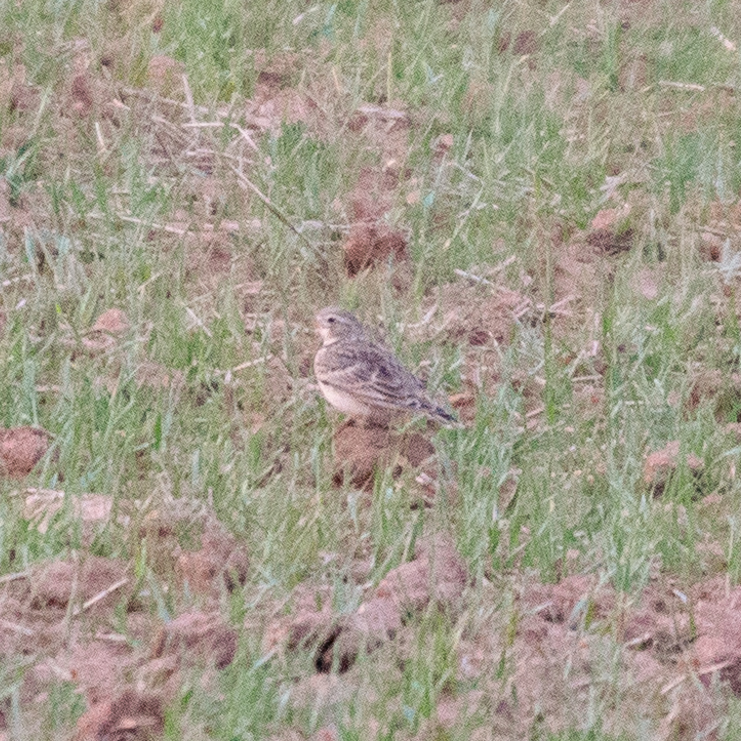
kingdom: Animalia
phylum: Chordata
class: Aves
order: Passeriformes
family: Alaudidae
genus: Melanocorypha
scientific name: Melanocorypha calandra
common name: Calandra lark
